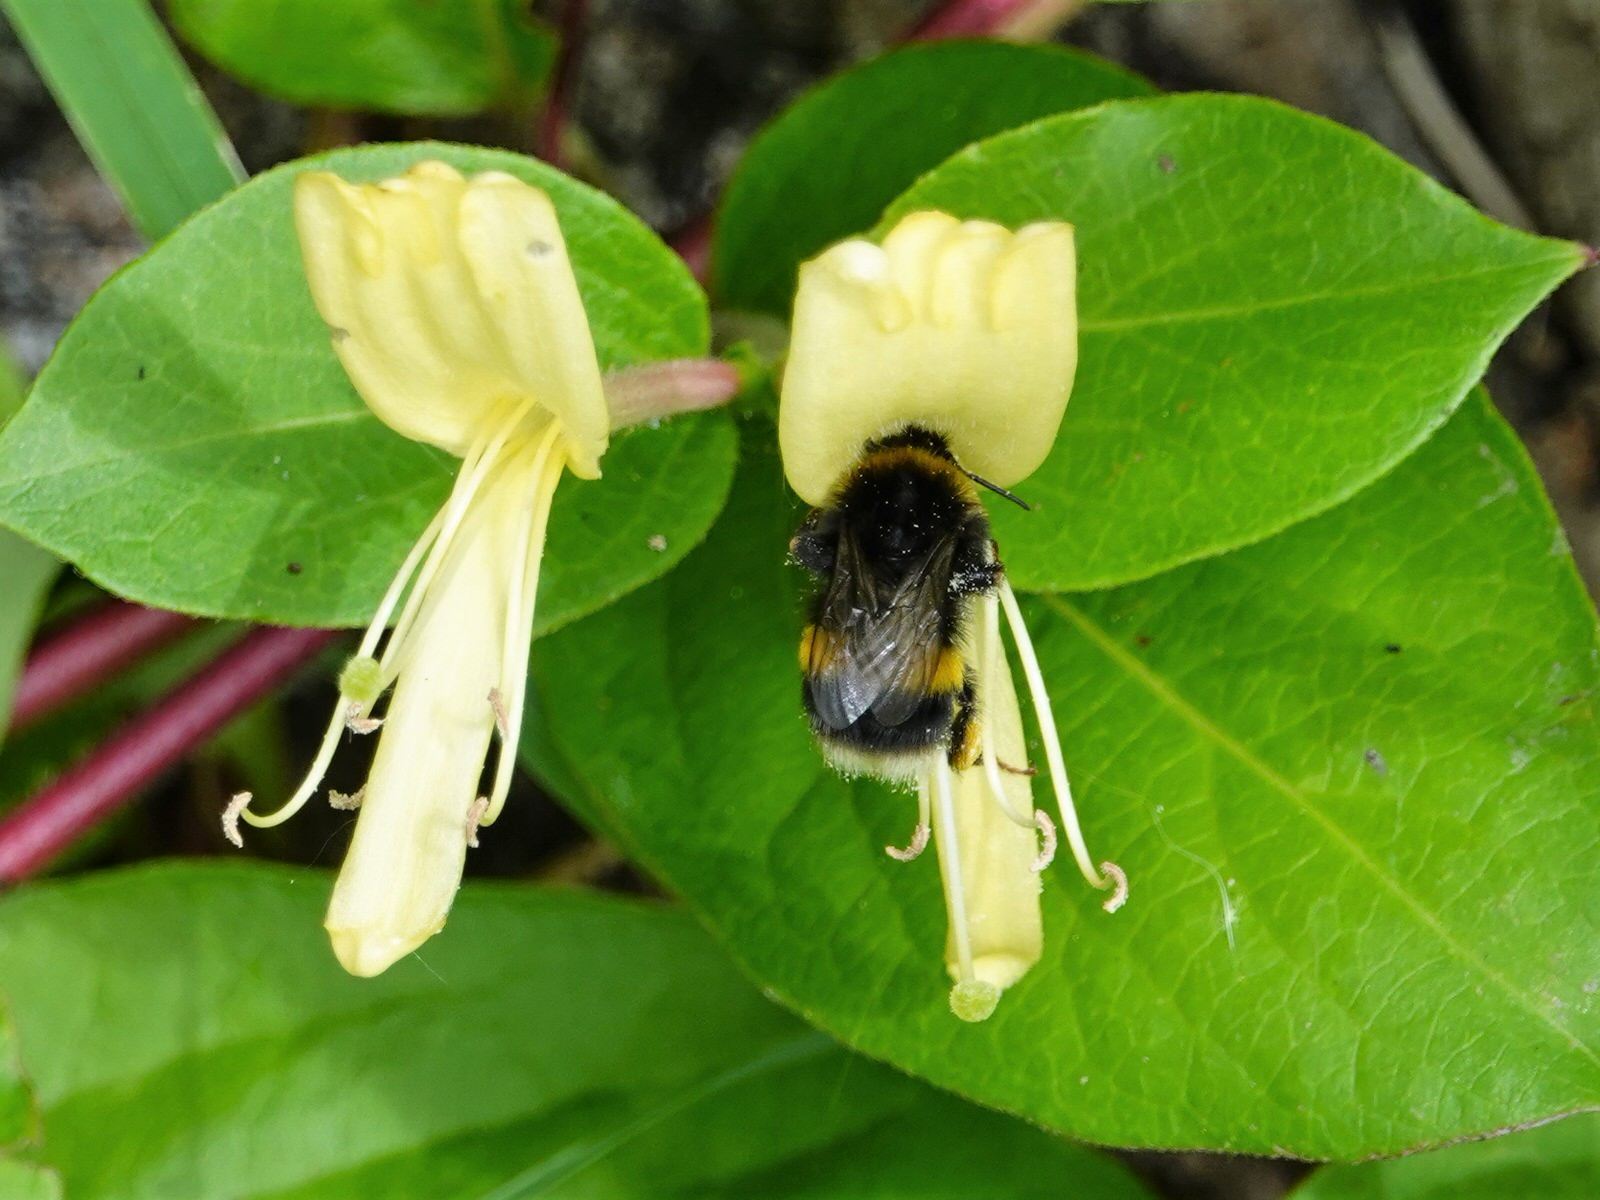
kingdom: Animalia
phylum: Arthropoda
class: Insecta
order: Hymenoptera
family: Apidae
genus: Bombus
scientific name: Bombus terrestris
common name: Buff-tailed bumblebee
